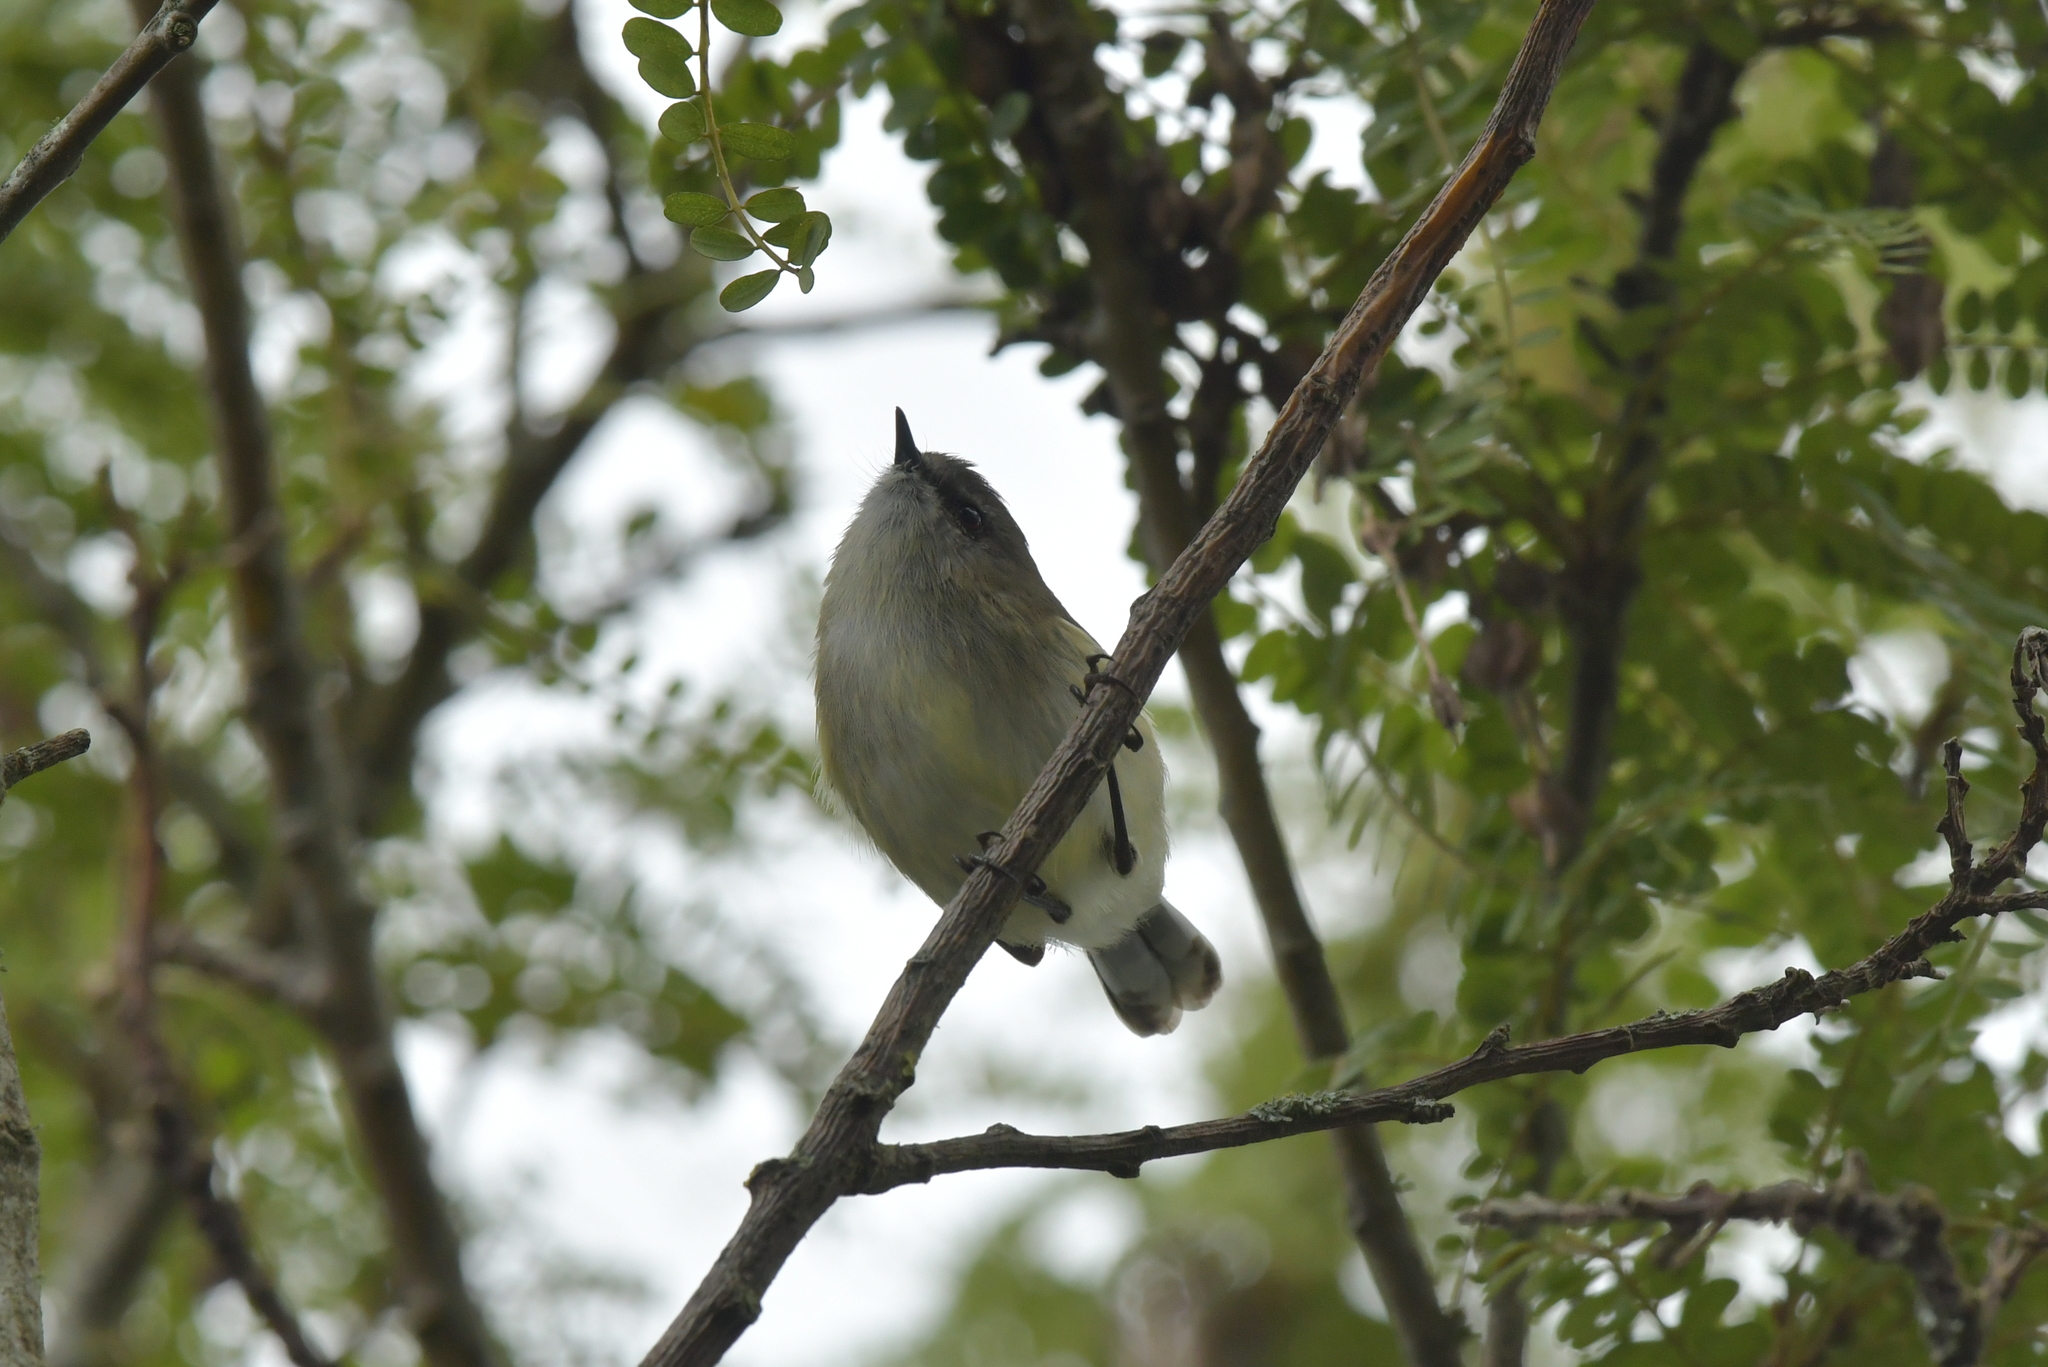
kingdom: Animalia
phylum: Chordata
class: Aves
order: Passeriformes
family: Acanthizidae
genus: Gerygone
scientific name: Gerygone igata
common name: Grey gerygone
